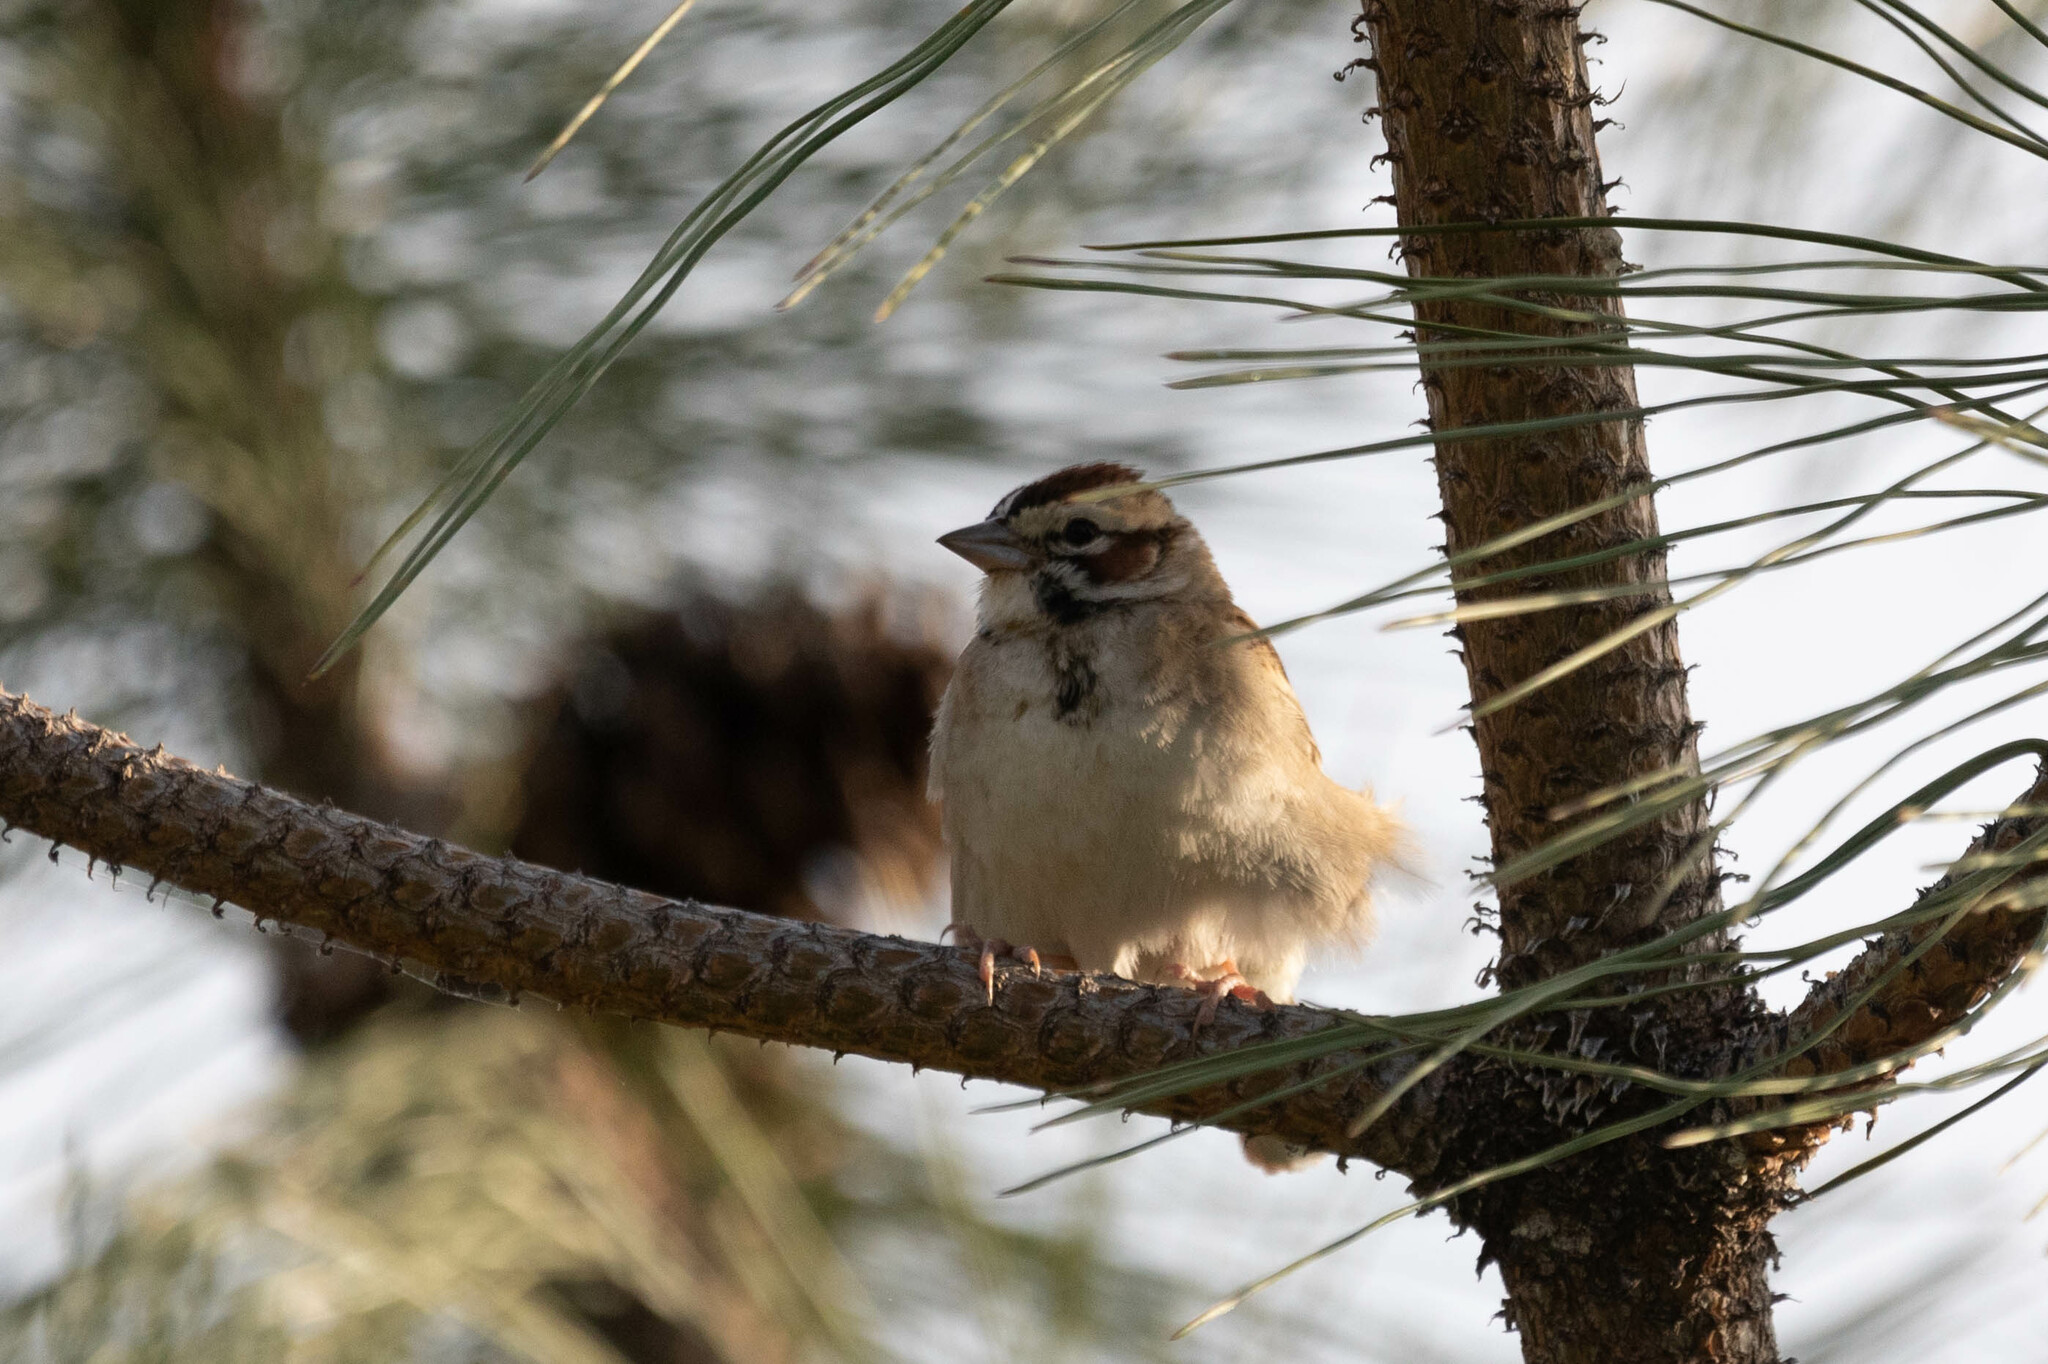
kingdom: Animalia
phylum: Chordata
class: Aves
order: Passeriformes
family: Passerellidae
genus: Chondestes
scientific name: Chondestes grammacus
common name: Lark sparrow
